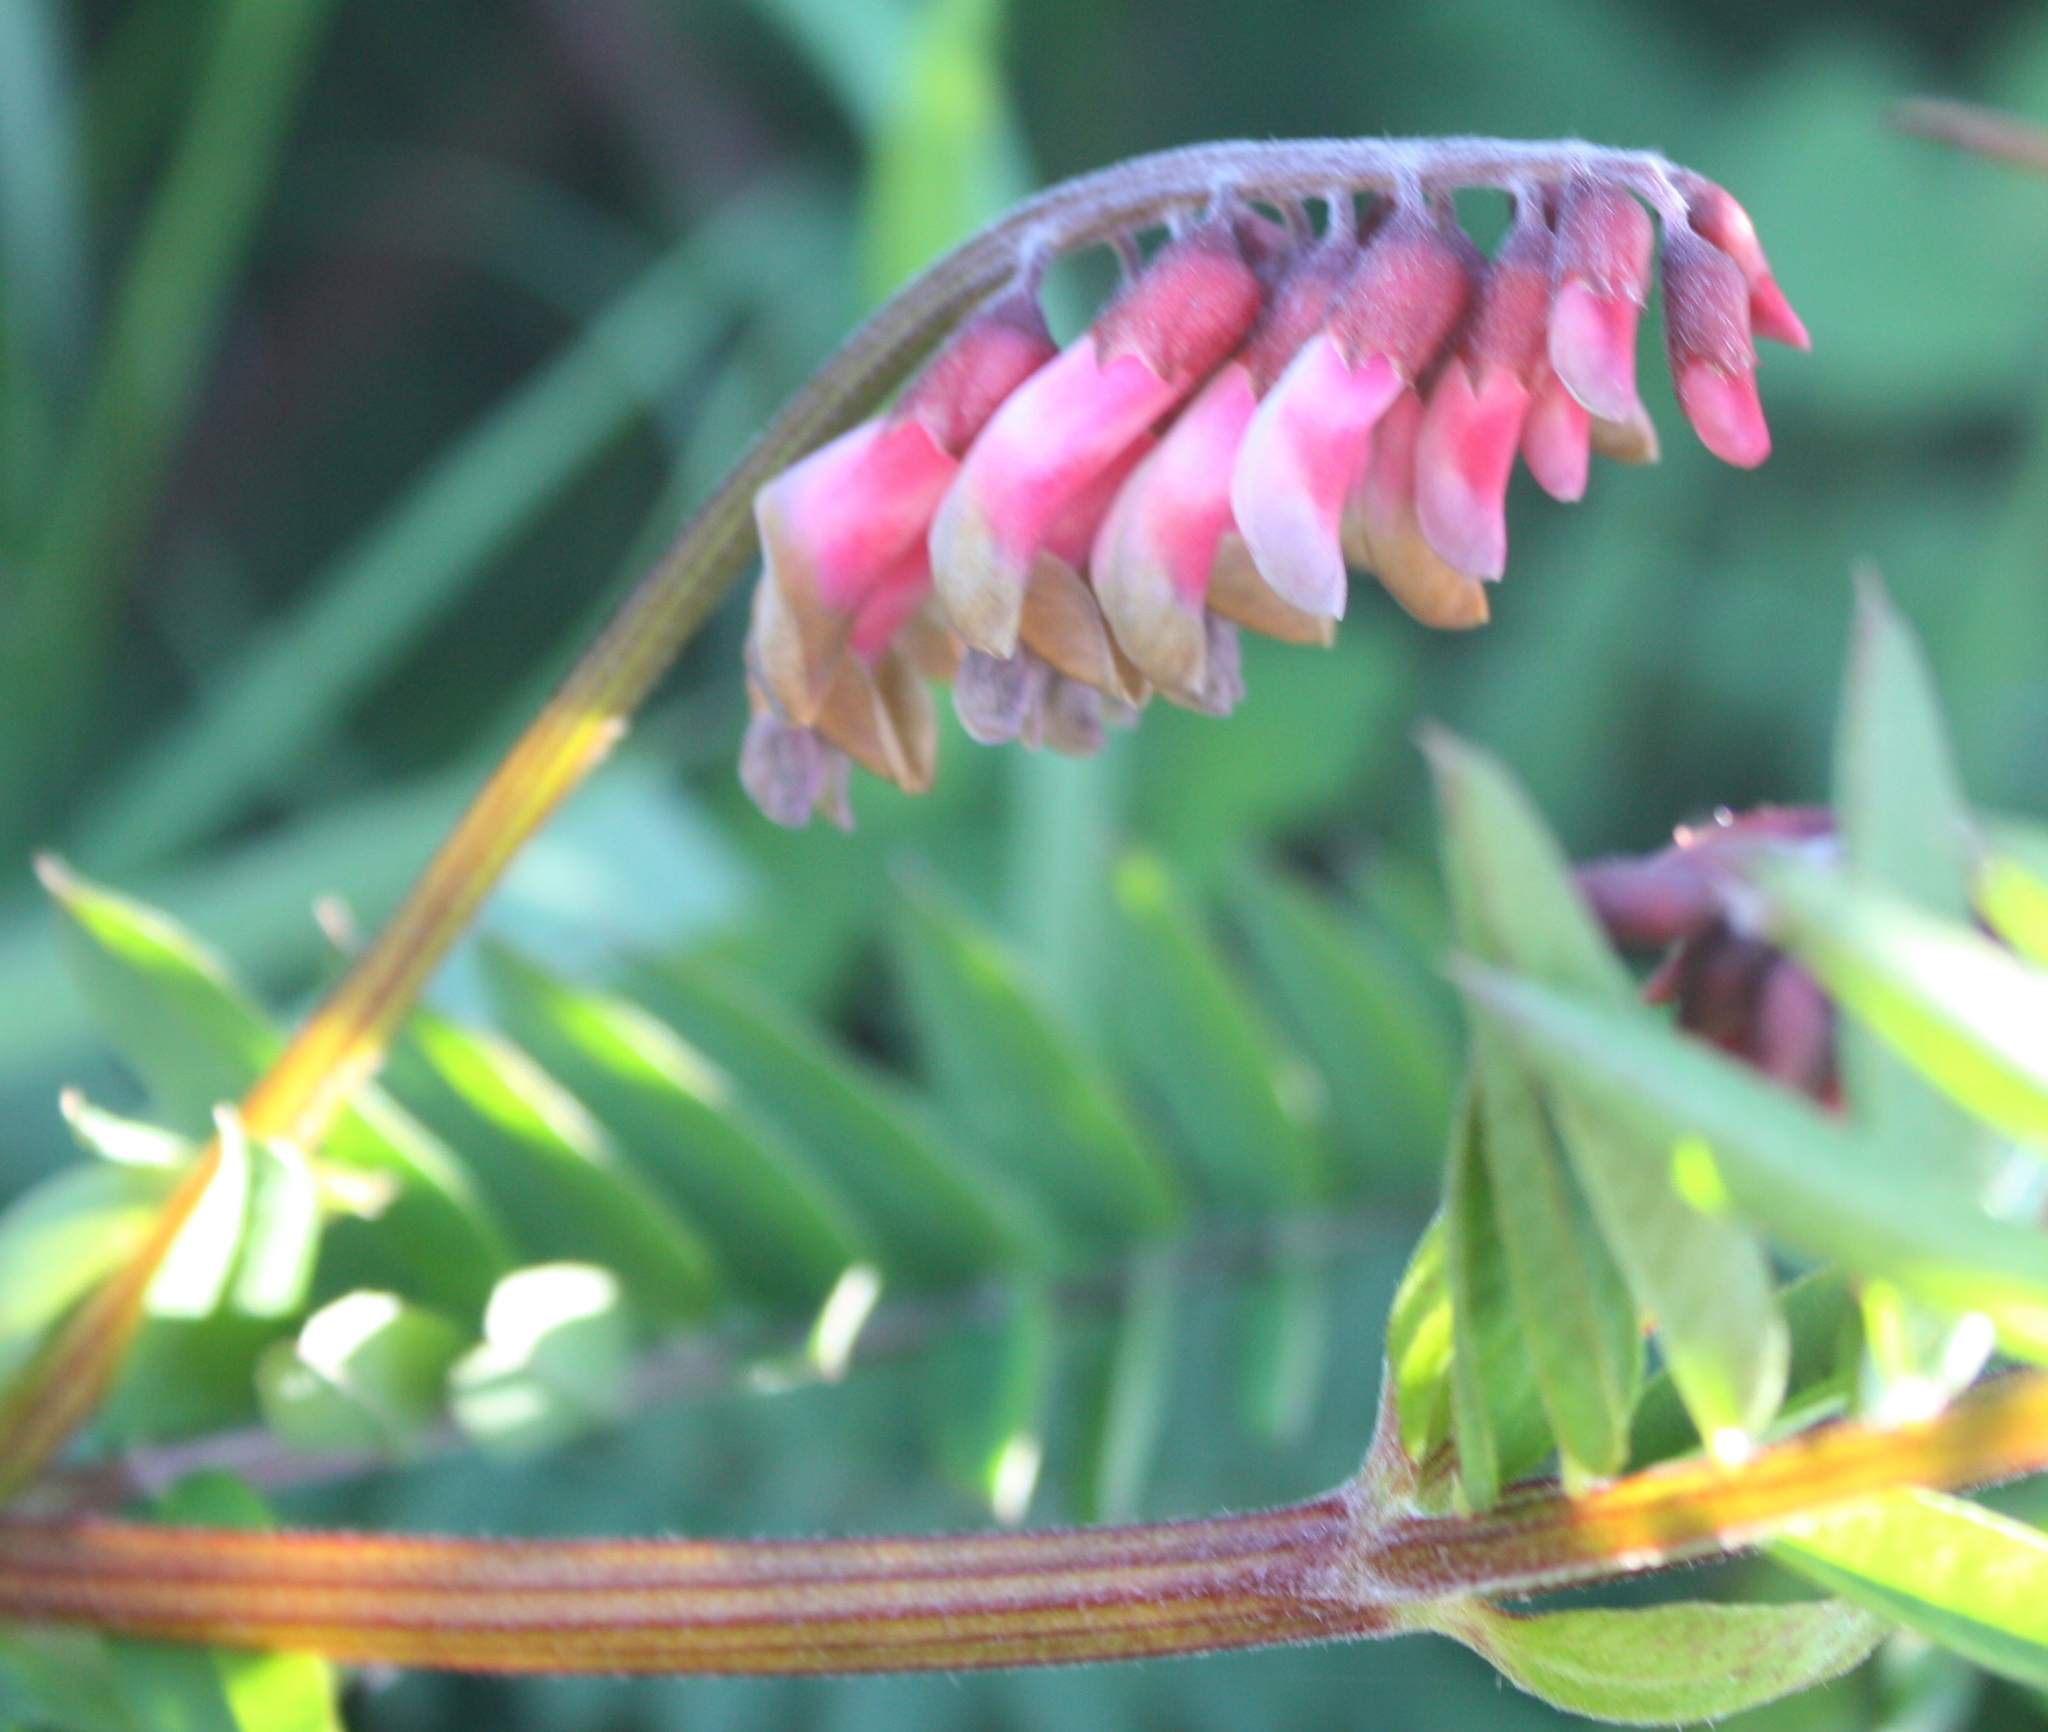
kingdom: Plantae
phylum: Tracheophyta
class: Magnoliopsida
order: Fabales
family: Fabaceae
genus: Vicia
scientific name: Vicia
